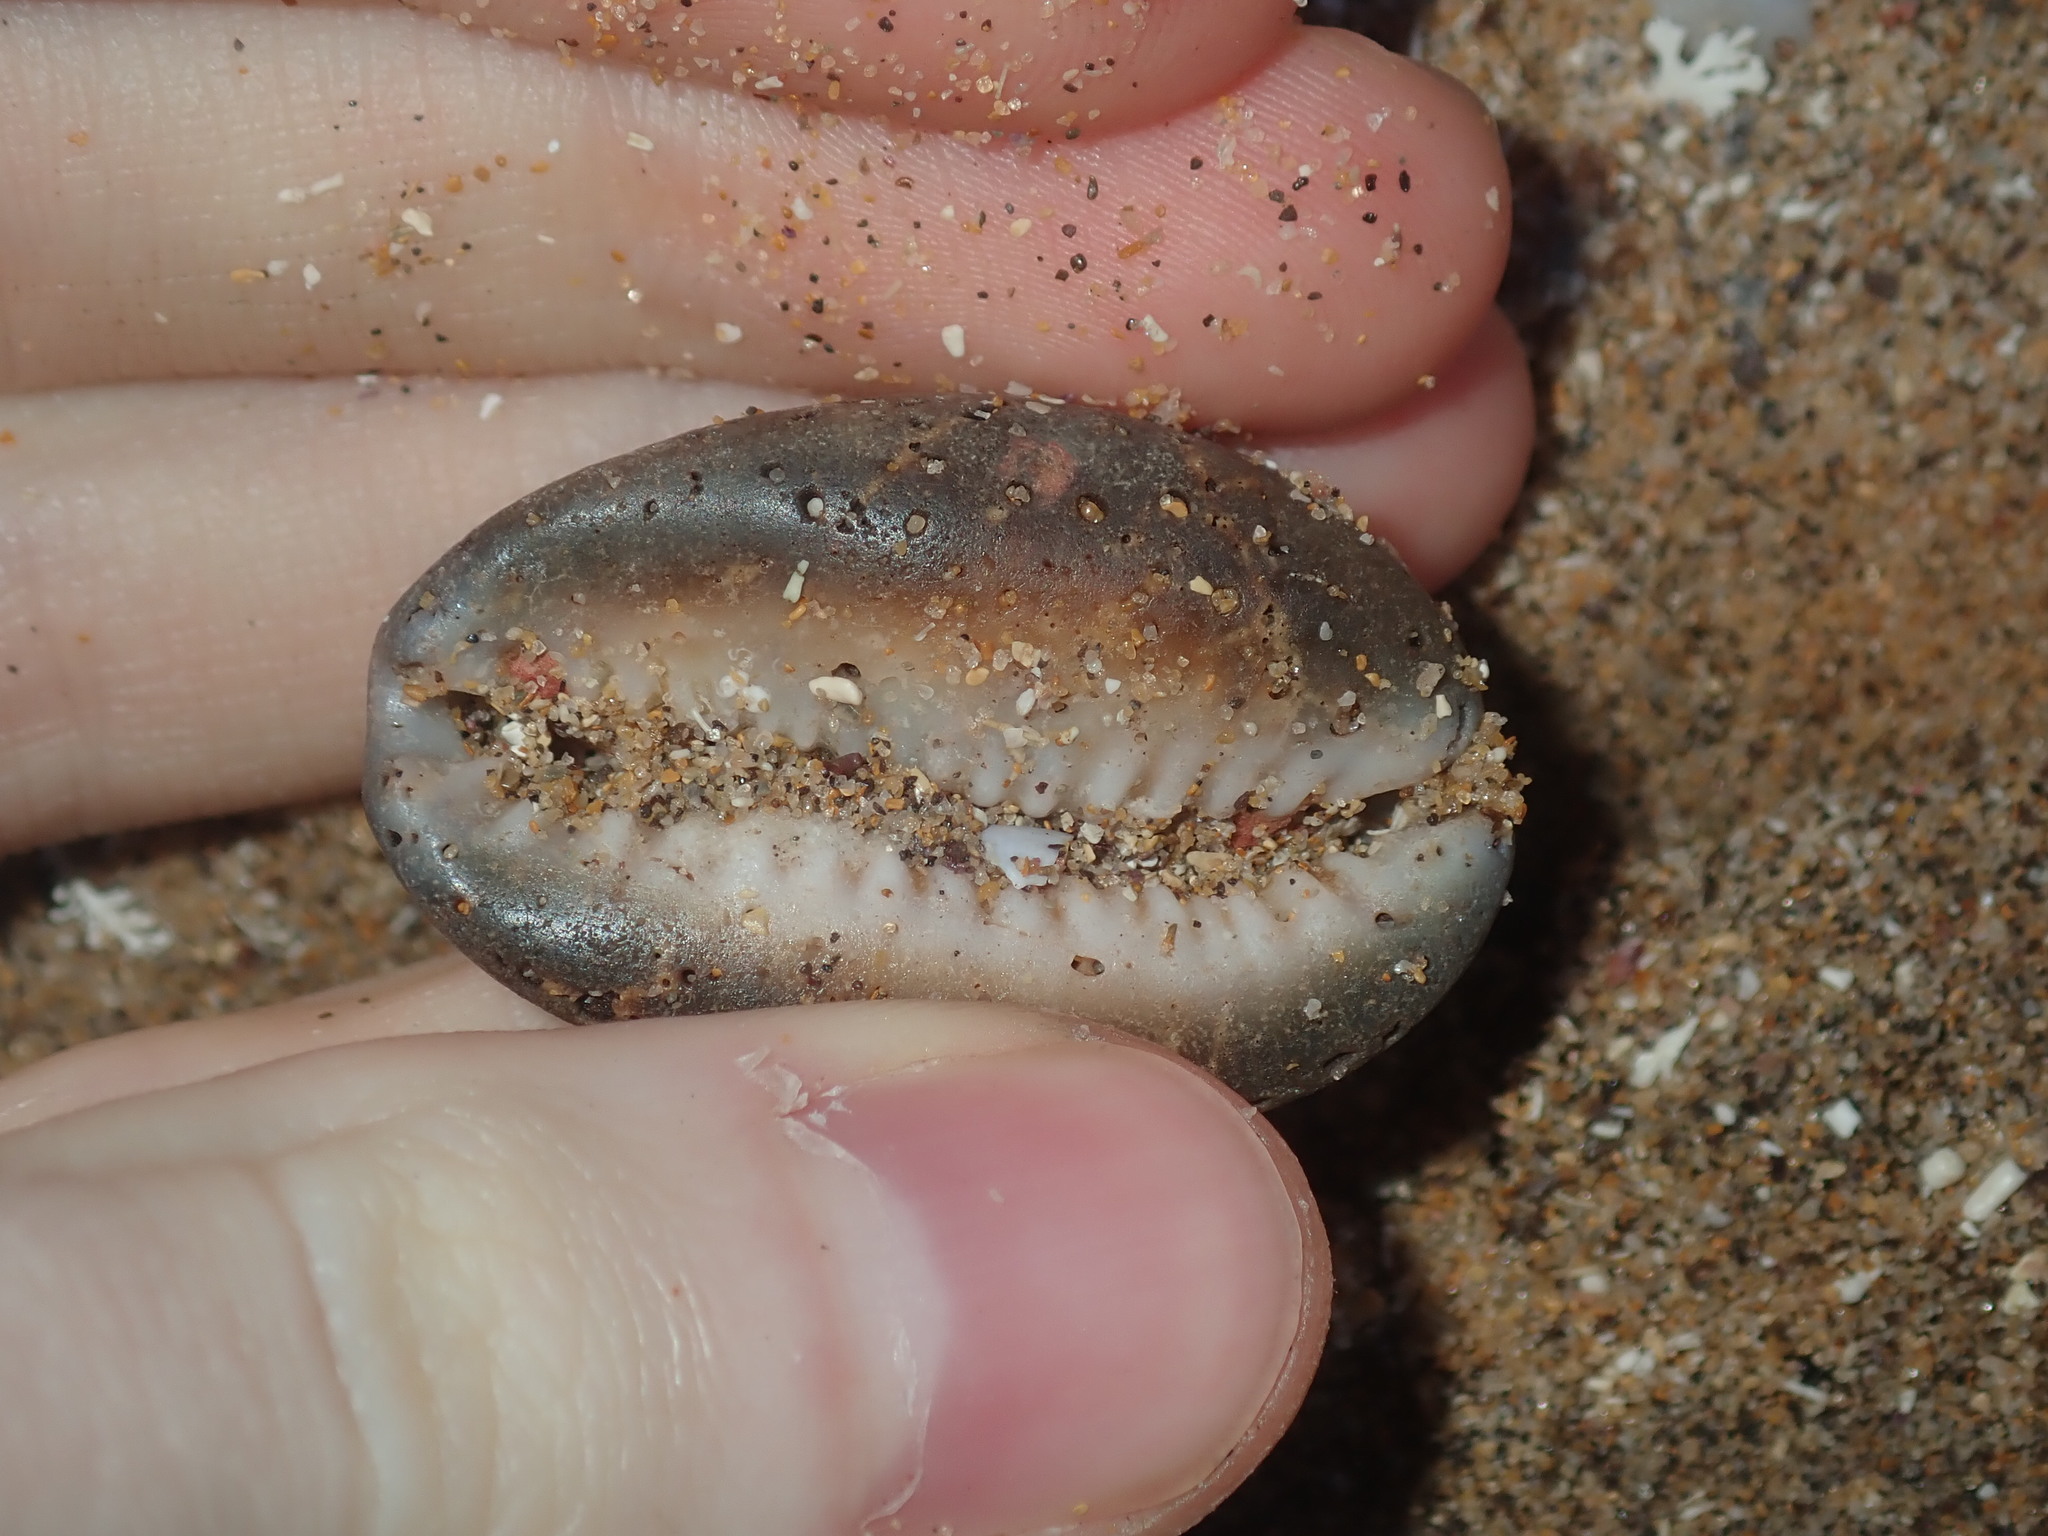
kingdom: Animalia
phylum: Mollusca
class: Gastropoda
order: Littorinimorpha
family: Cypraeidae
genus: Monetaria
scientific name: Monetaria caputserpentis
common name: Serpent's head cowrie
